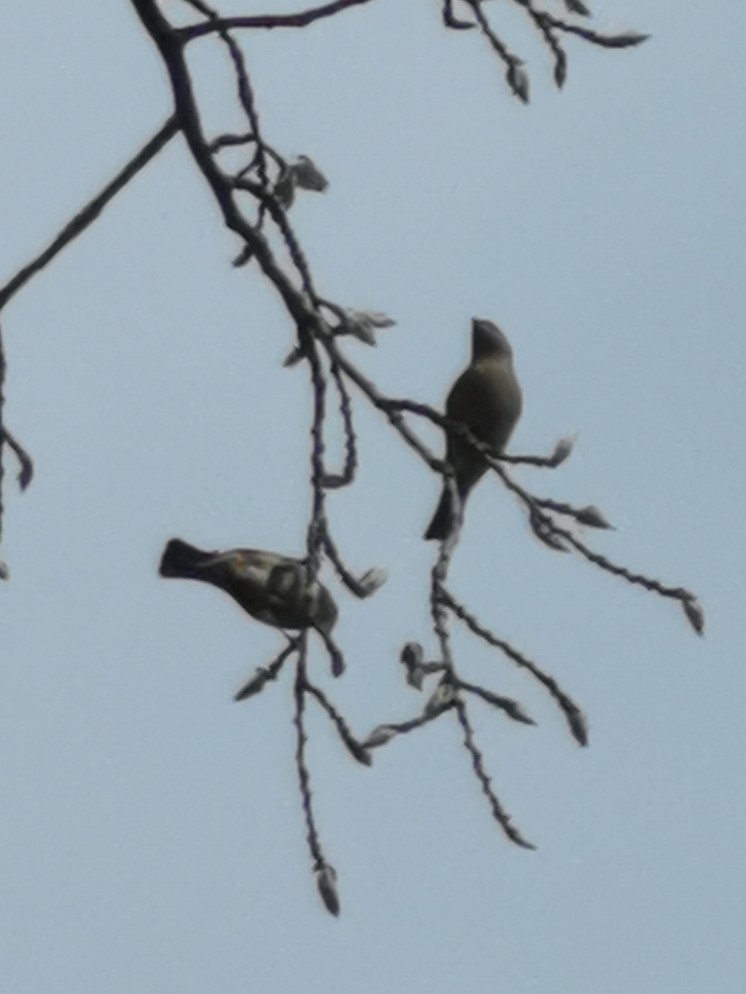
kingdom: Animalia
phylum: Chordata
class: Aves
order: Passeriformes
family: Passeridae
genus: Passer
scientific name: Passer domesticus
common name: House sparrow
